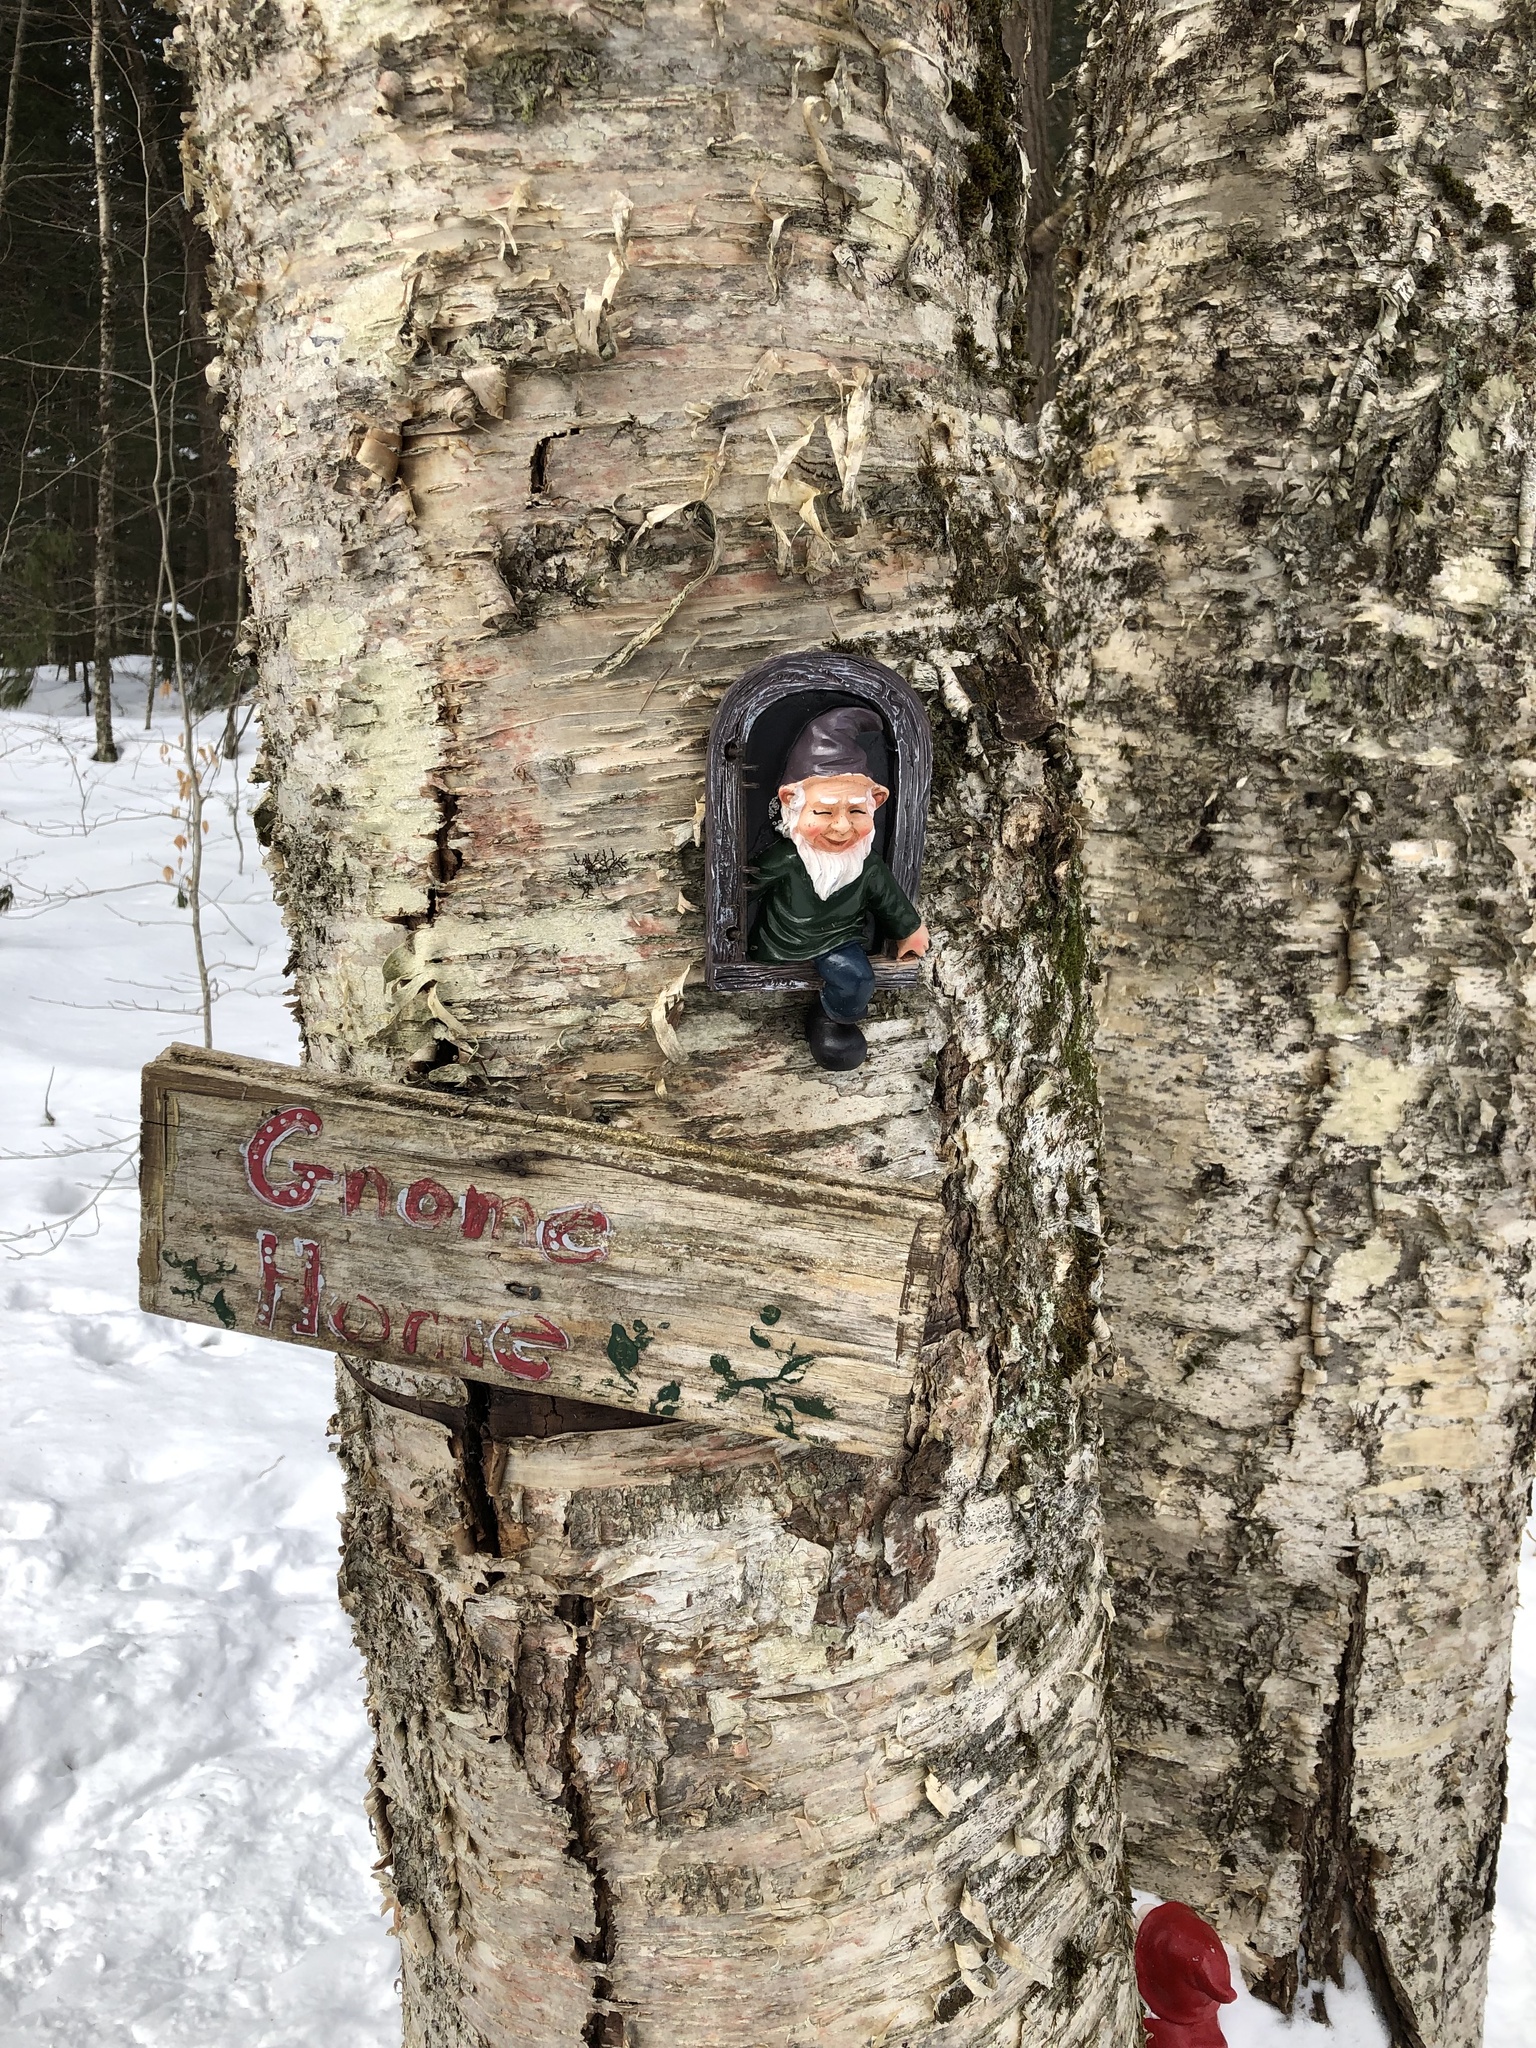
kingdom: Plantae
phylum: Tracheophyta
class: Magnoliopsida
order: Fagales
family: Betulaceae
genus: Betula
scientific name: Betula alleghaniensis
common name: Yellow birch
